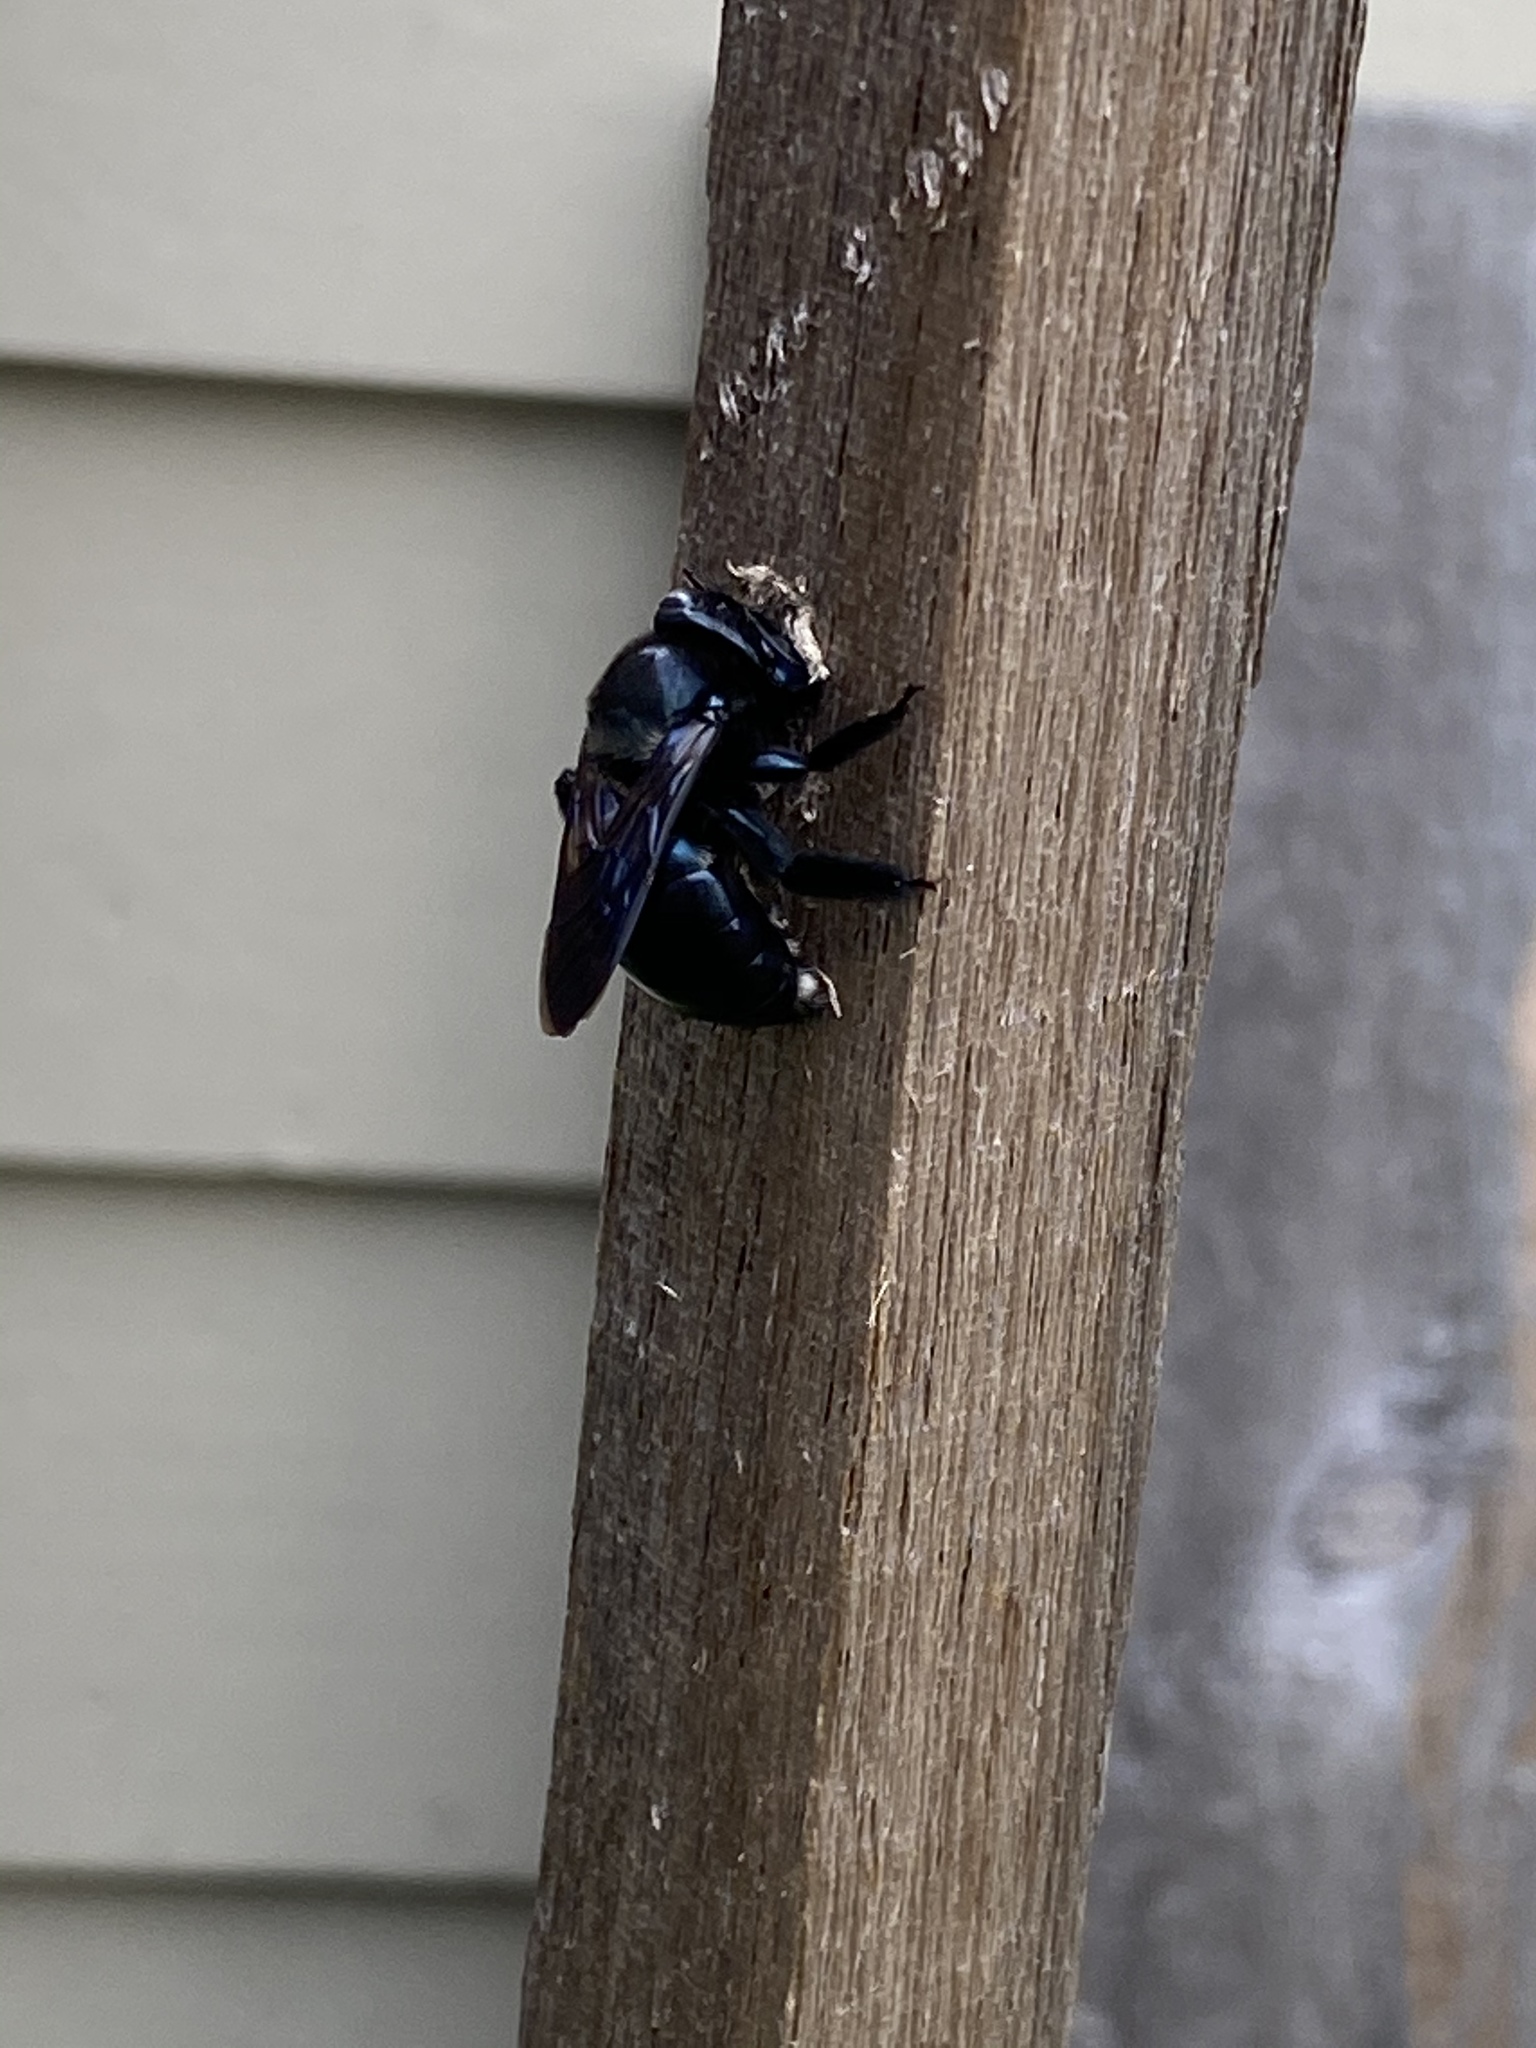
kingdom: Animalia
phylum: Arthropoda
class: Insecta
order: Hymenoptera
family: Apidae
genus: Xylocopa
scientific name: Xylocopa micans
